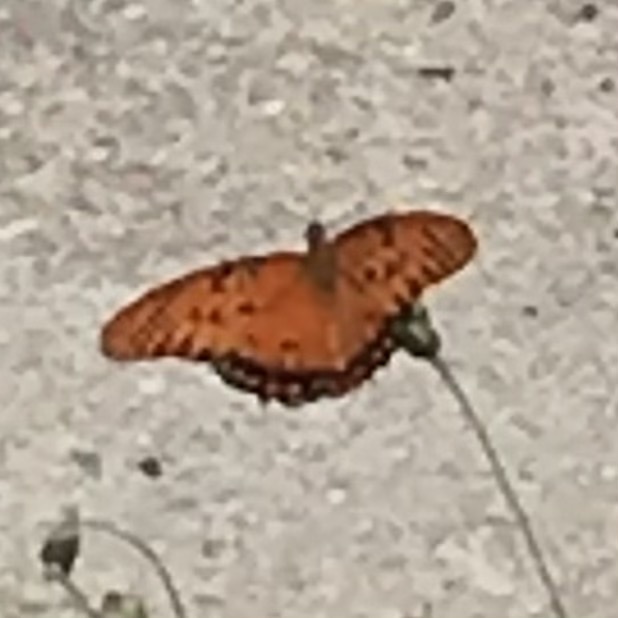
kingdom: Animalia
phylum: Arthropoda
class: Insecta
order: Lepidoptera
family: Nymphalidae
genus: Dione
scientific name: Dione vanillae
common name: Gulf fritillary
